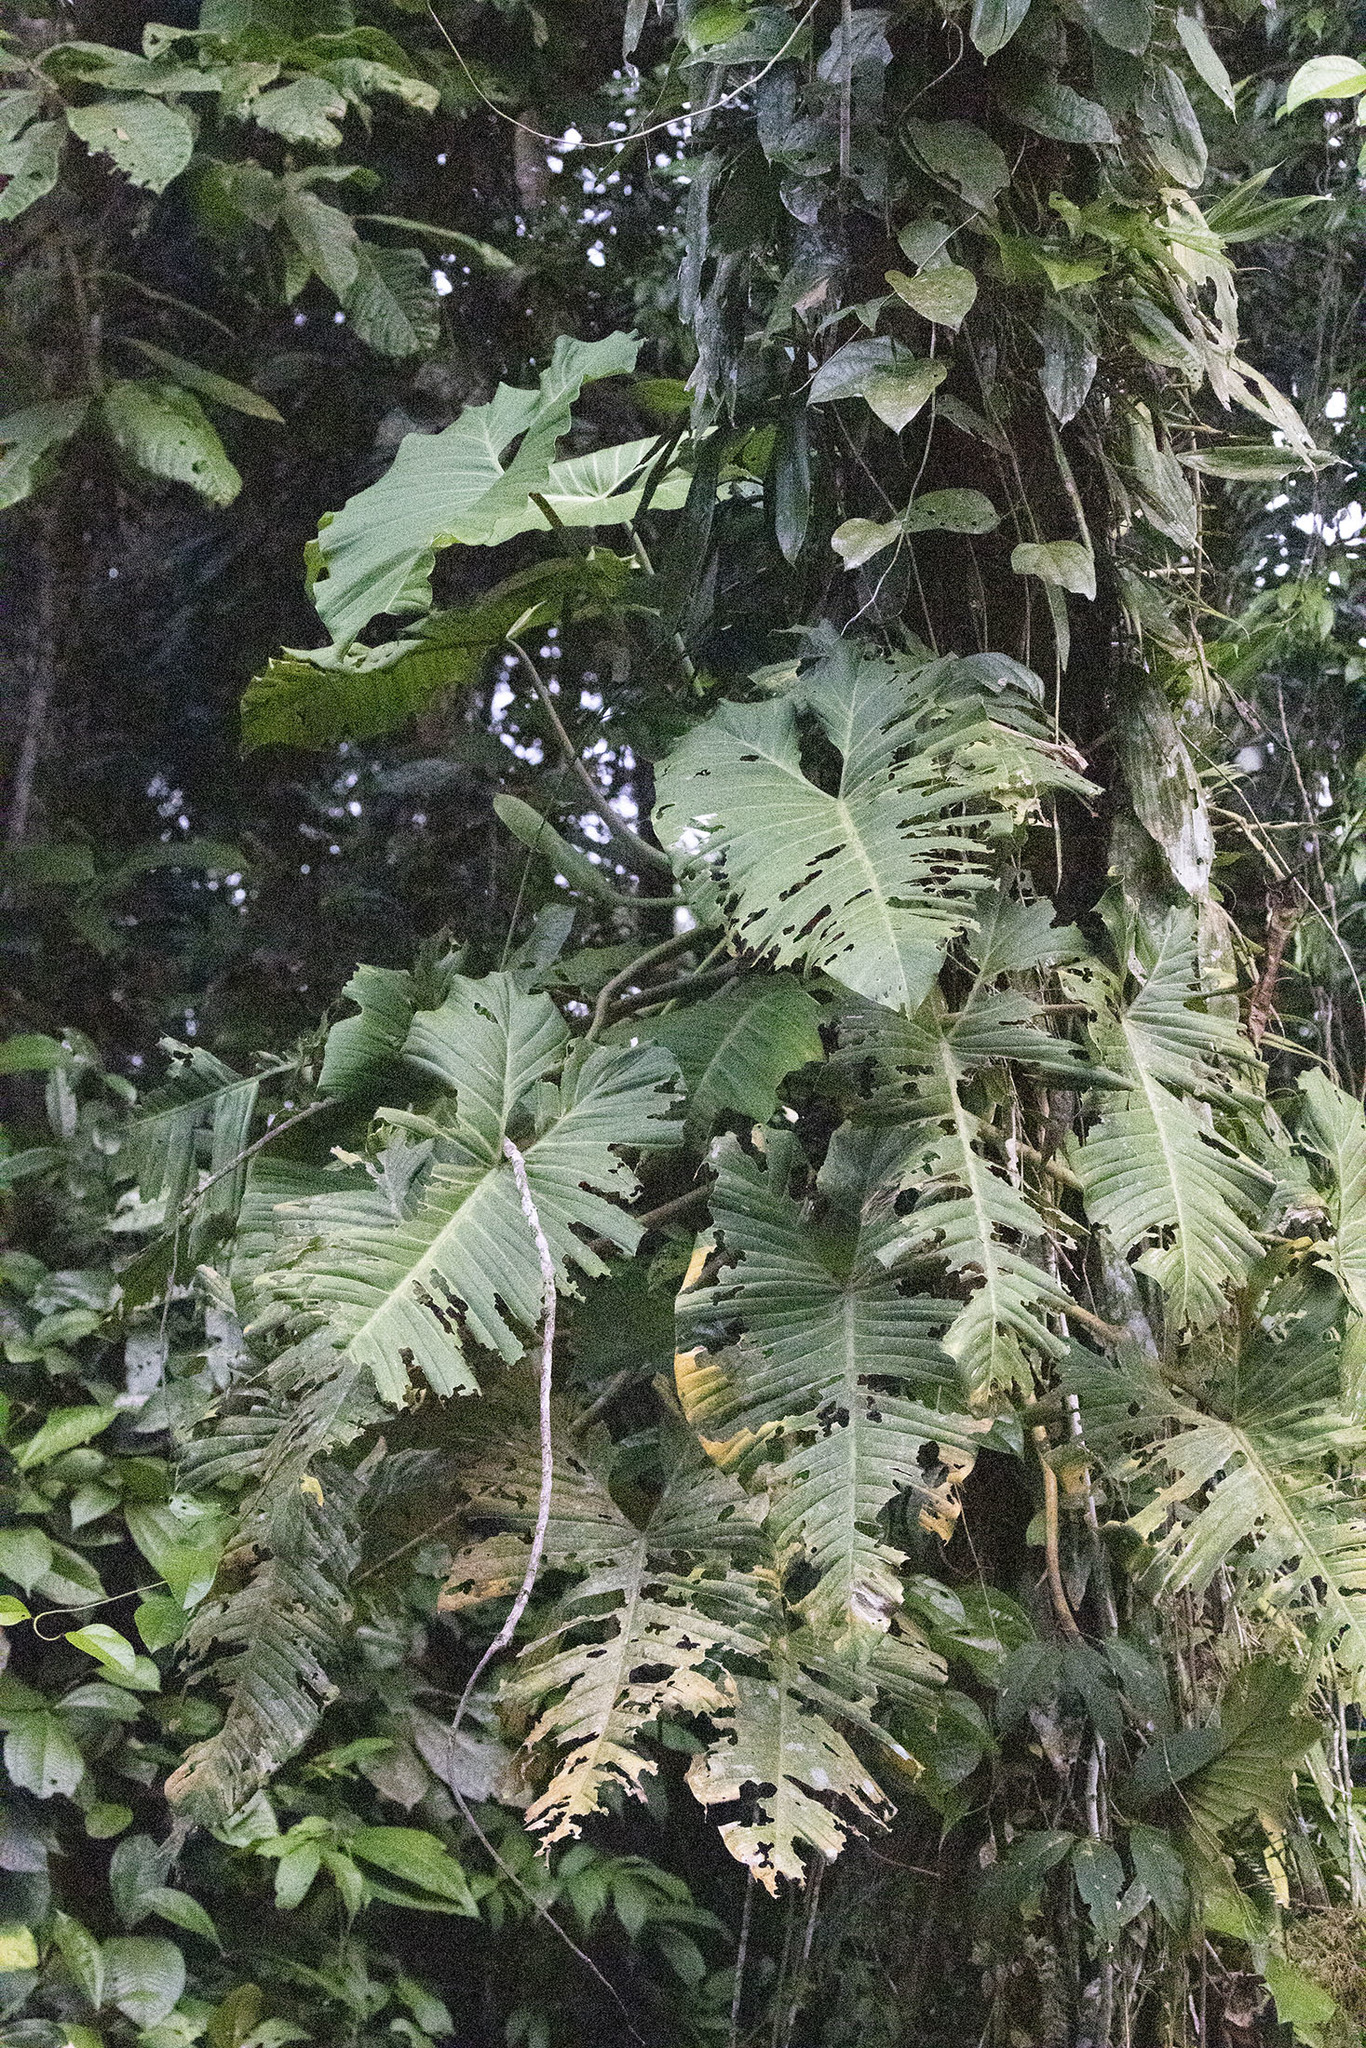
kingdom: Plantae
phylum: Tracheophyta
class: Liliopsida
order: Alismatales
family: Araceae
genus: Philodendron
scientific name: Philodendron deflexum
